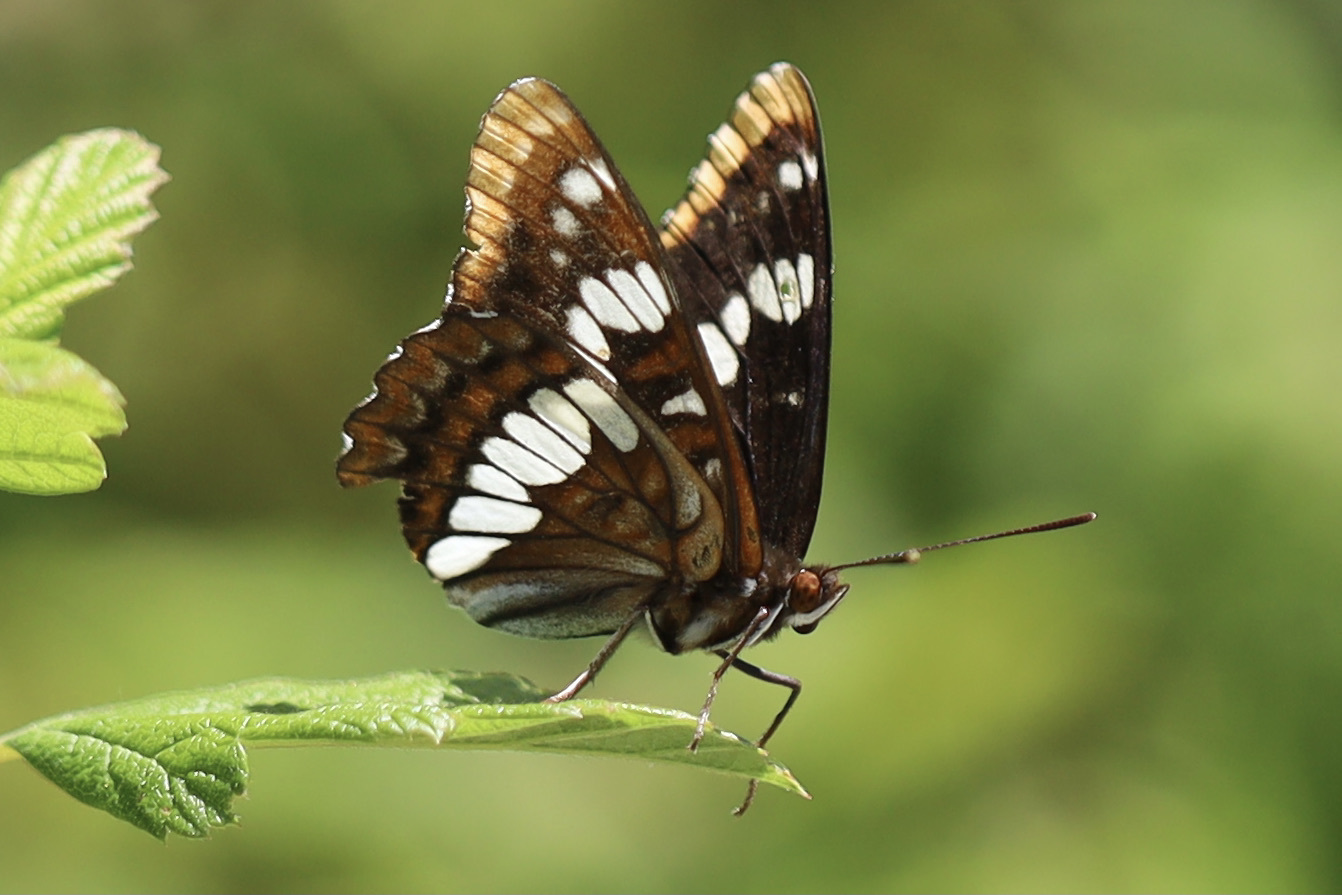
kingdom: Animalia
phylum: Arthropoda
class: Insecta
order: Lepidoptera
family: Nymphalidae
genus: Limenitis
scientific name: Limenitis lorquini
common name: Lorquin's admiral
